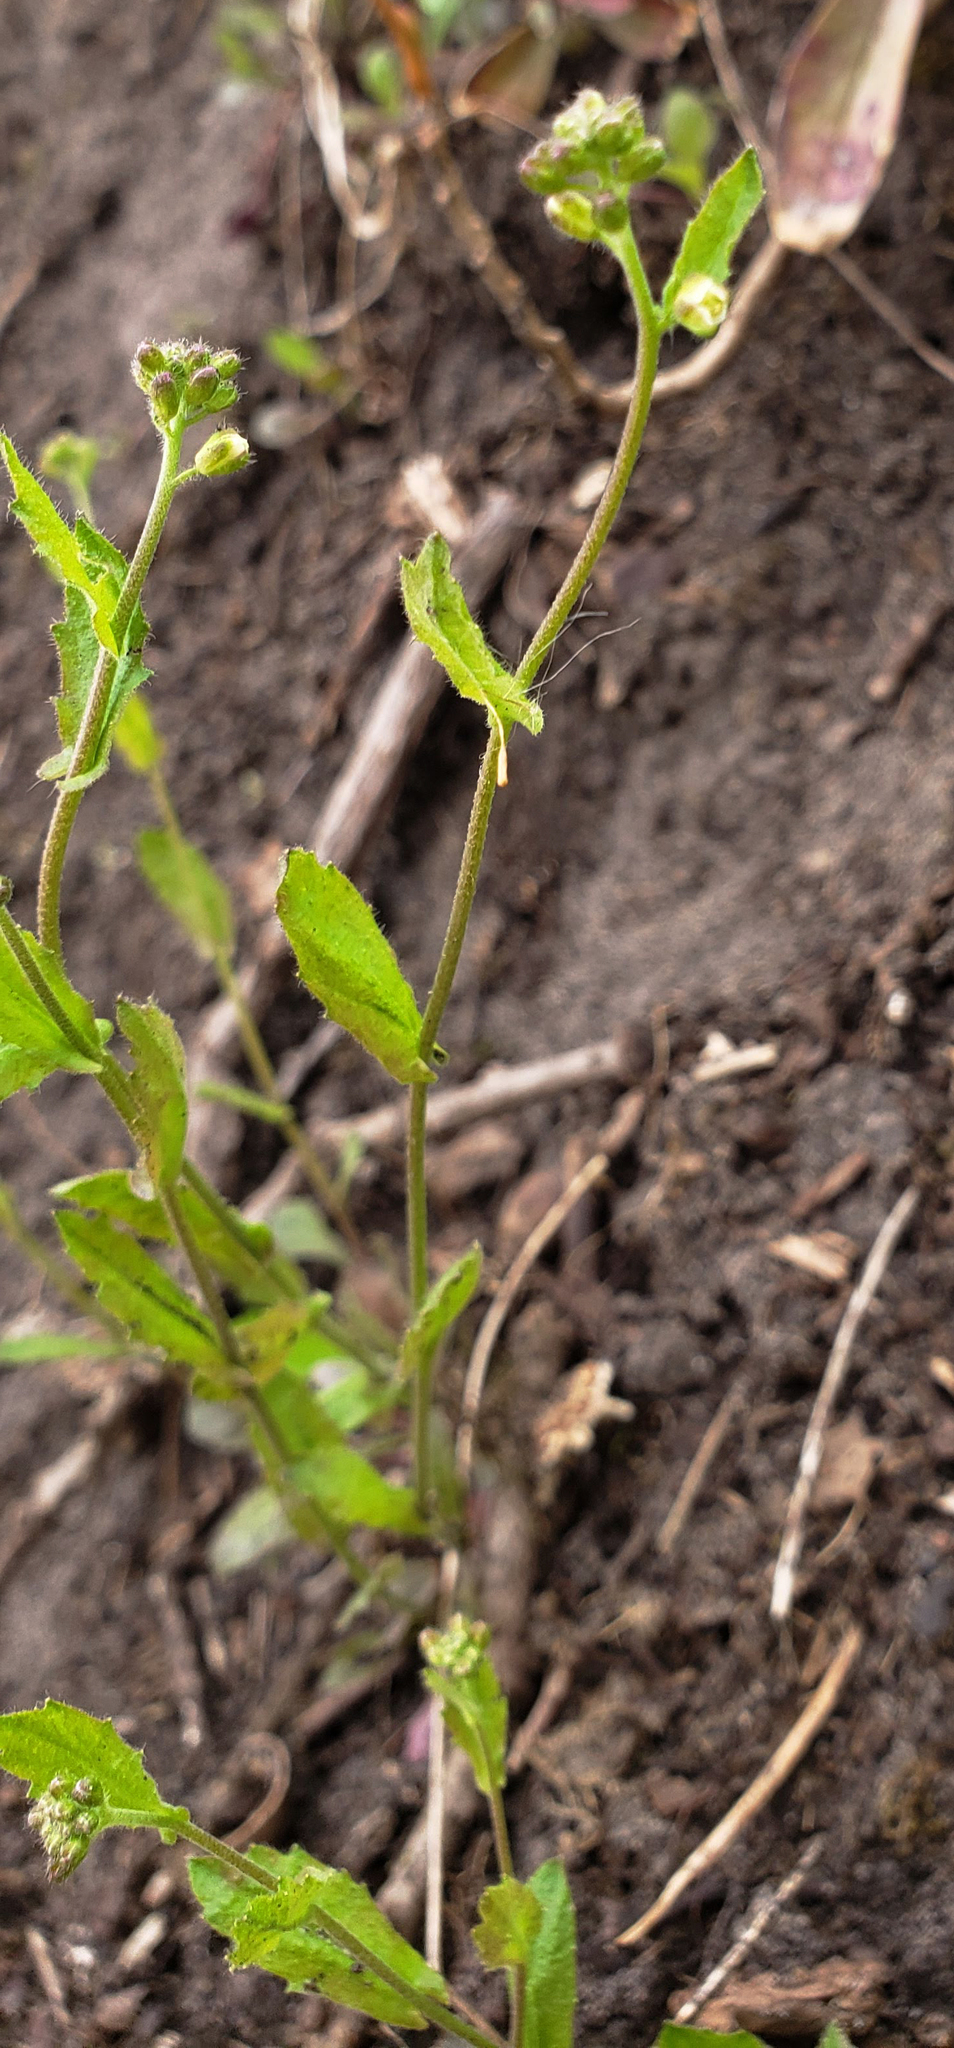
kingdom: Plantae
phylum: Tracheophyta
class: Magnoliopsida
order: Brassicales
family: Brassicaceae
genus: Borodinia
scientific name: Borodinia dentata
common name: Short's rockcress
